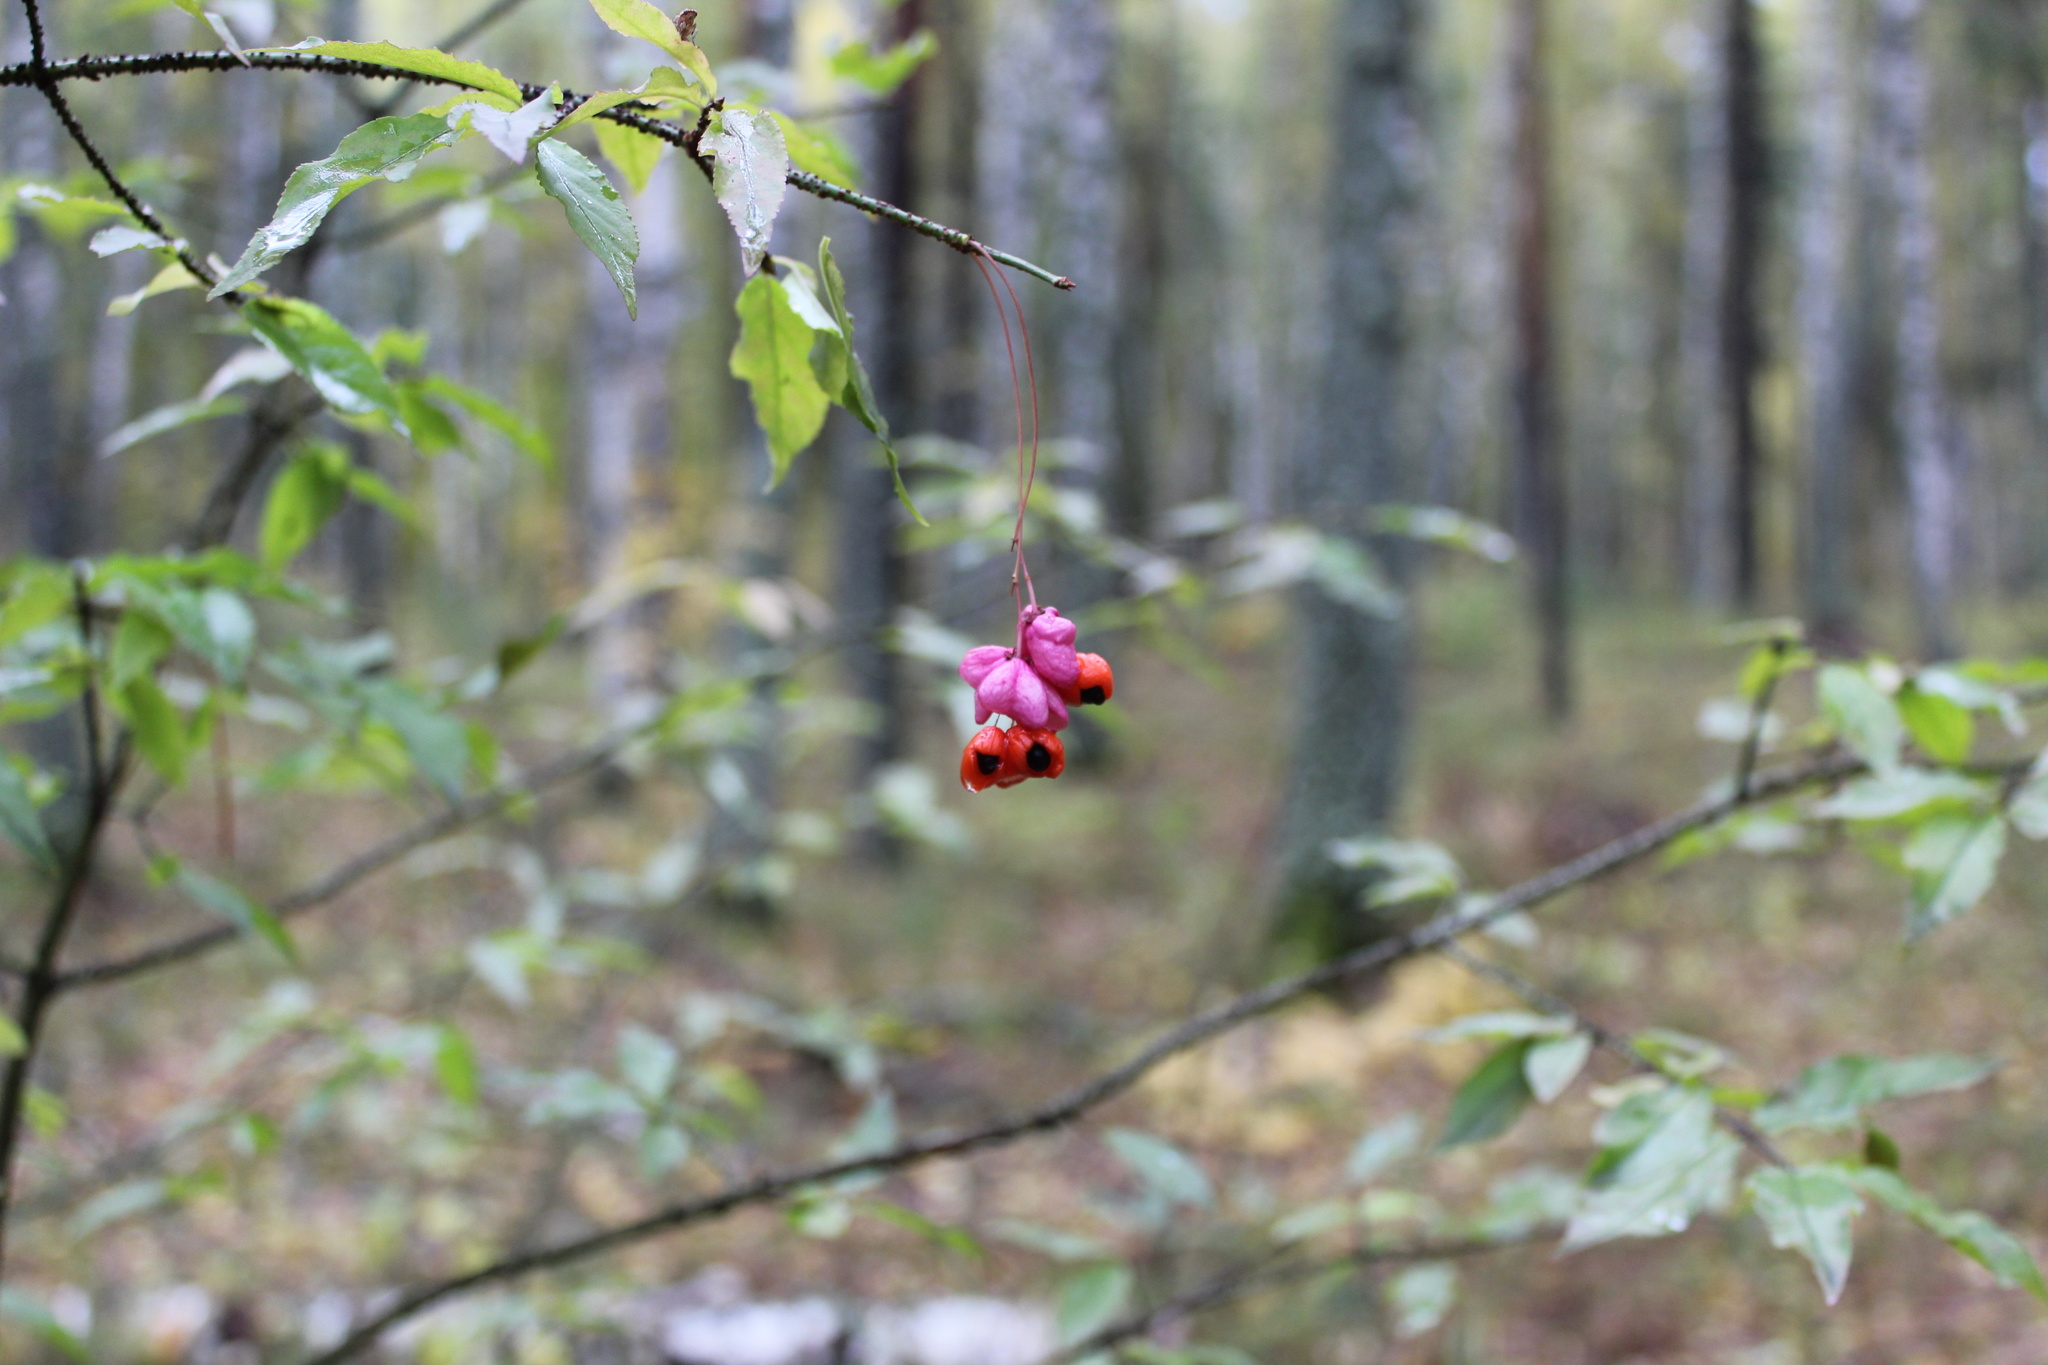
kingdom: Plantae
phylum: Tracheophyta
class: Magnoliopsida
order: Celastrales
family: Celastraceae
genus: Euonymus
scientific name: Euonymus verrucosus
